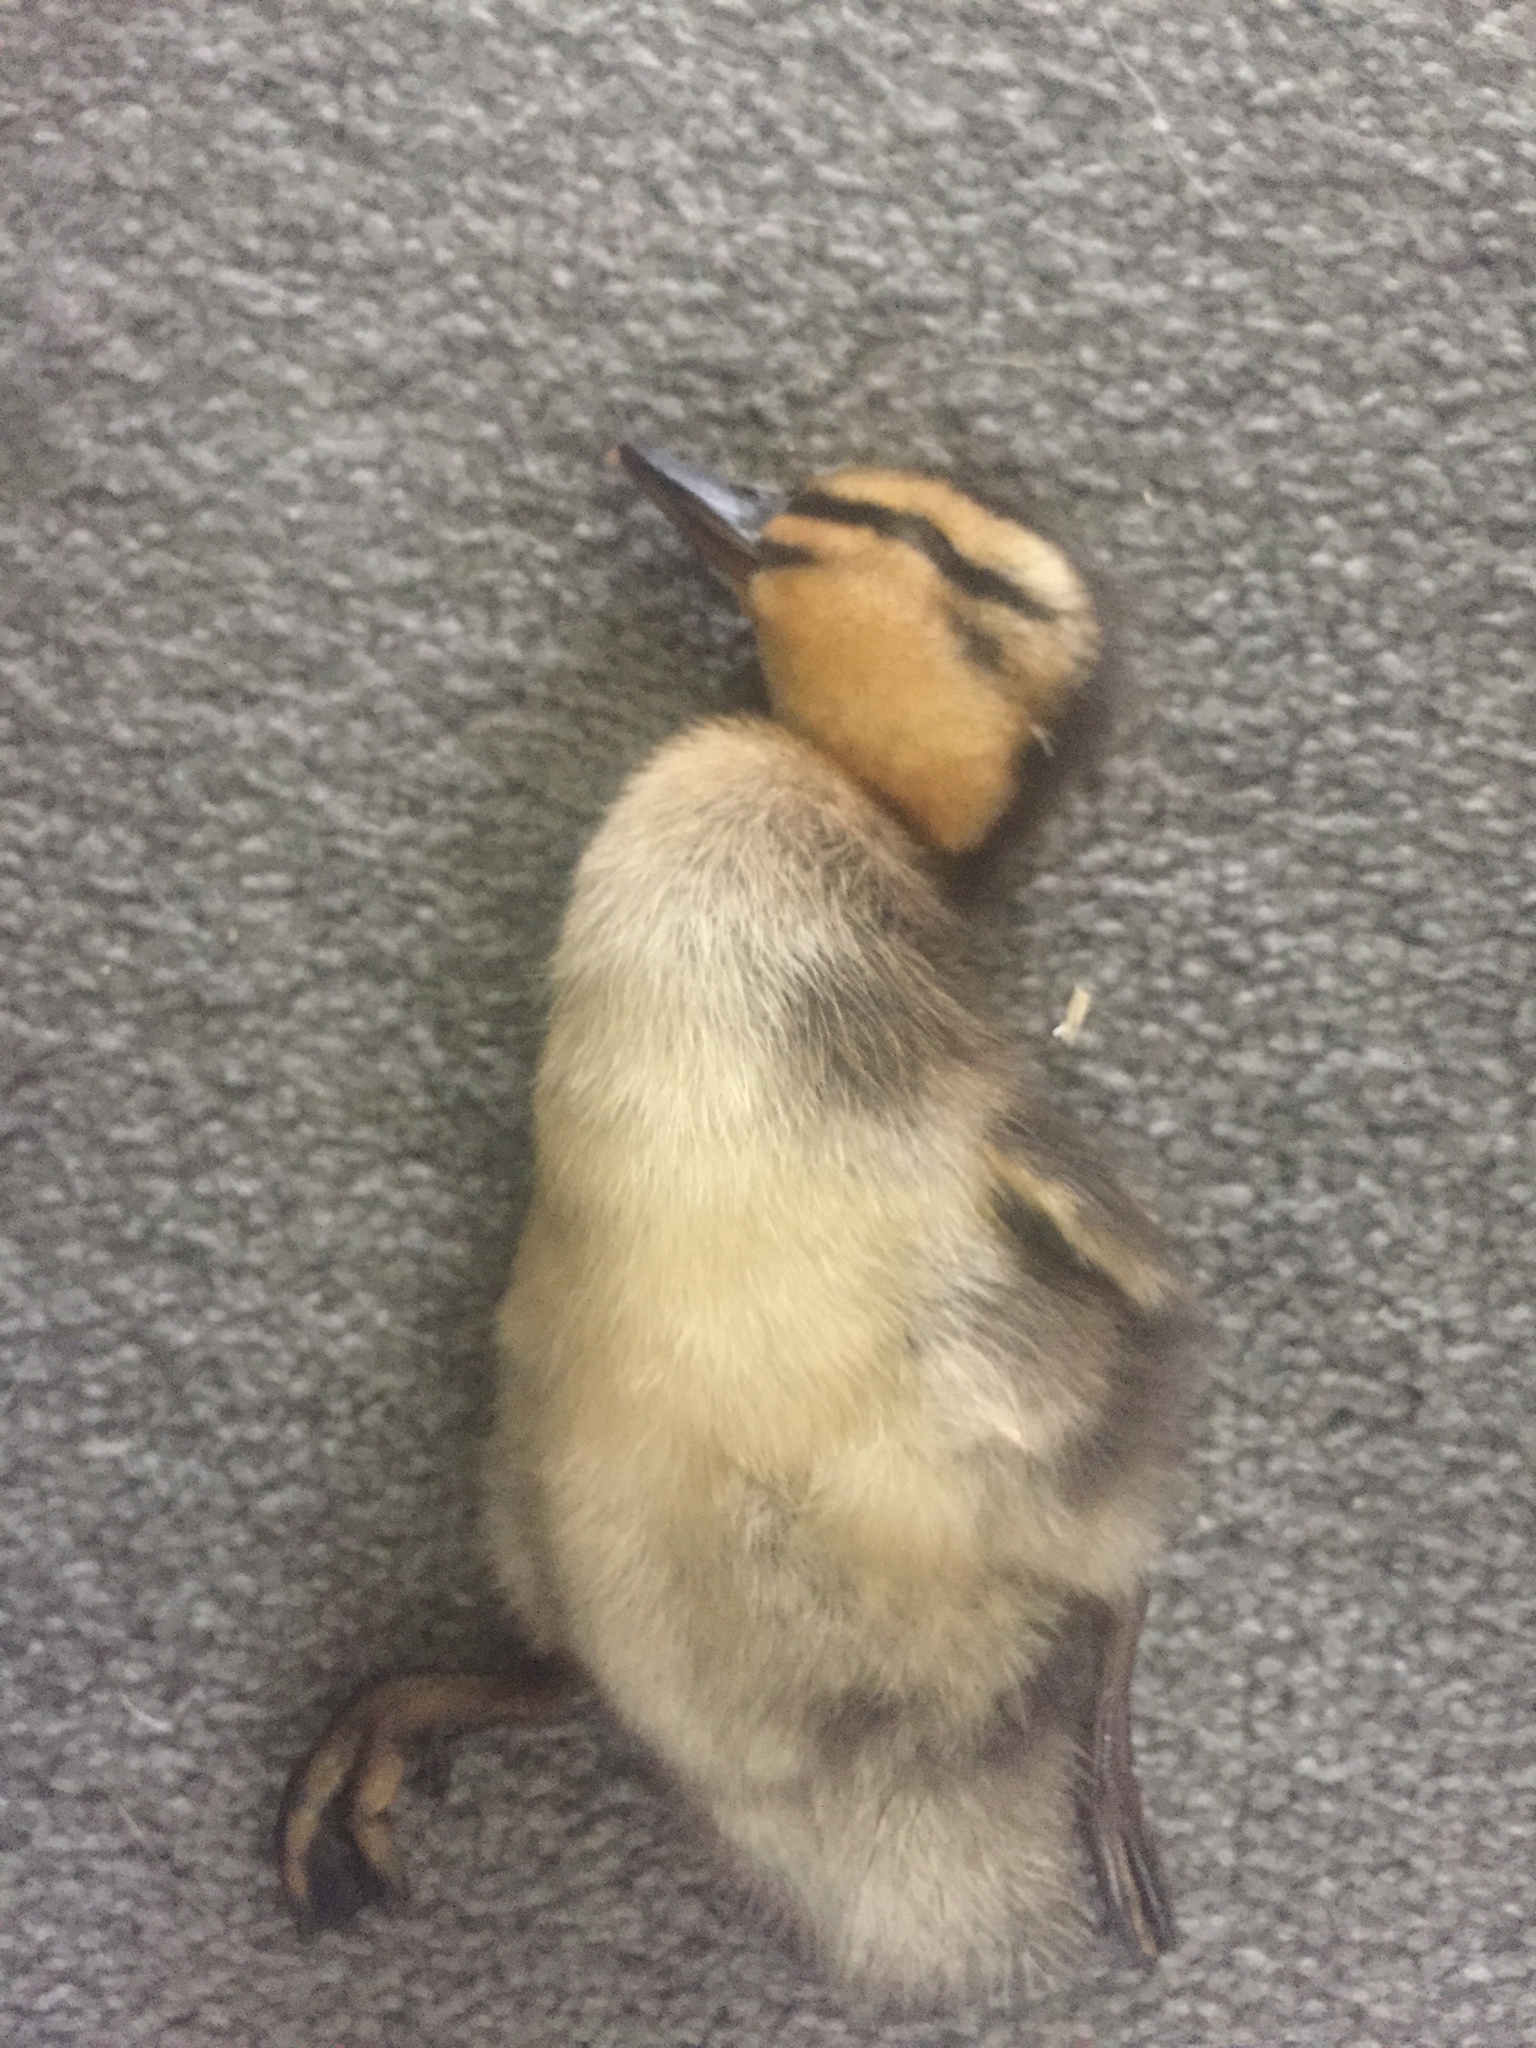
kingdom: Animalia
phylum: Chordata
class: Aves
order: Anseriformes
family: Anatidae
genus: Anas
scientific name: Anas platyrhynchos
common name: Mallard
